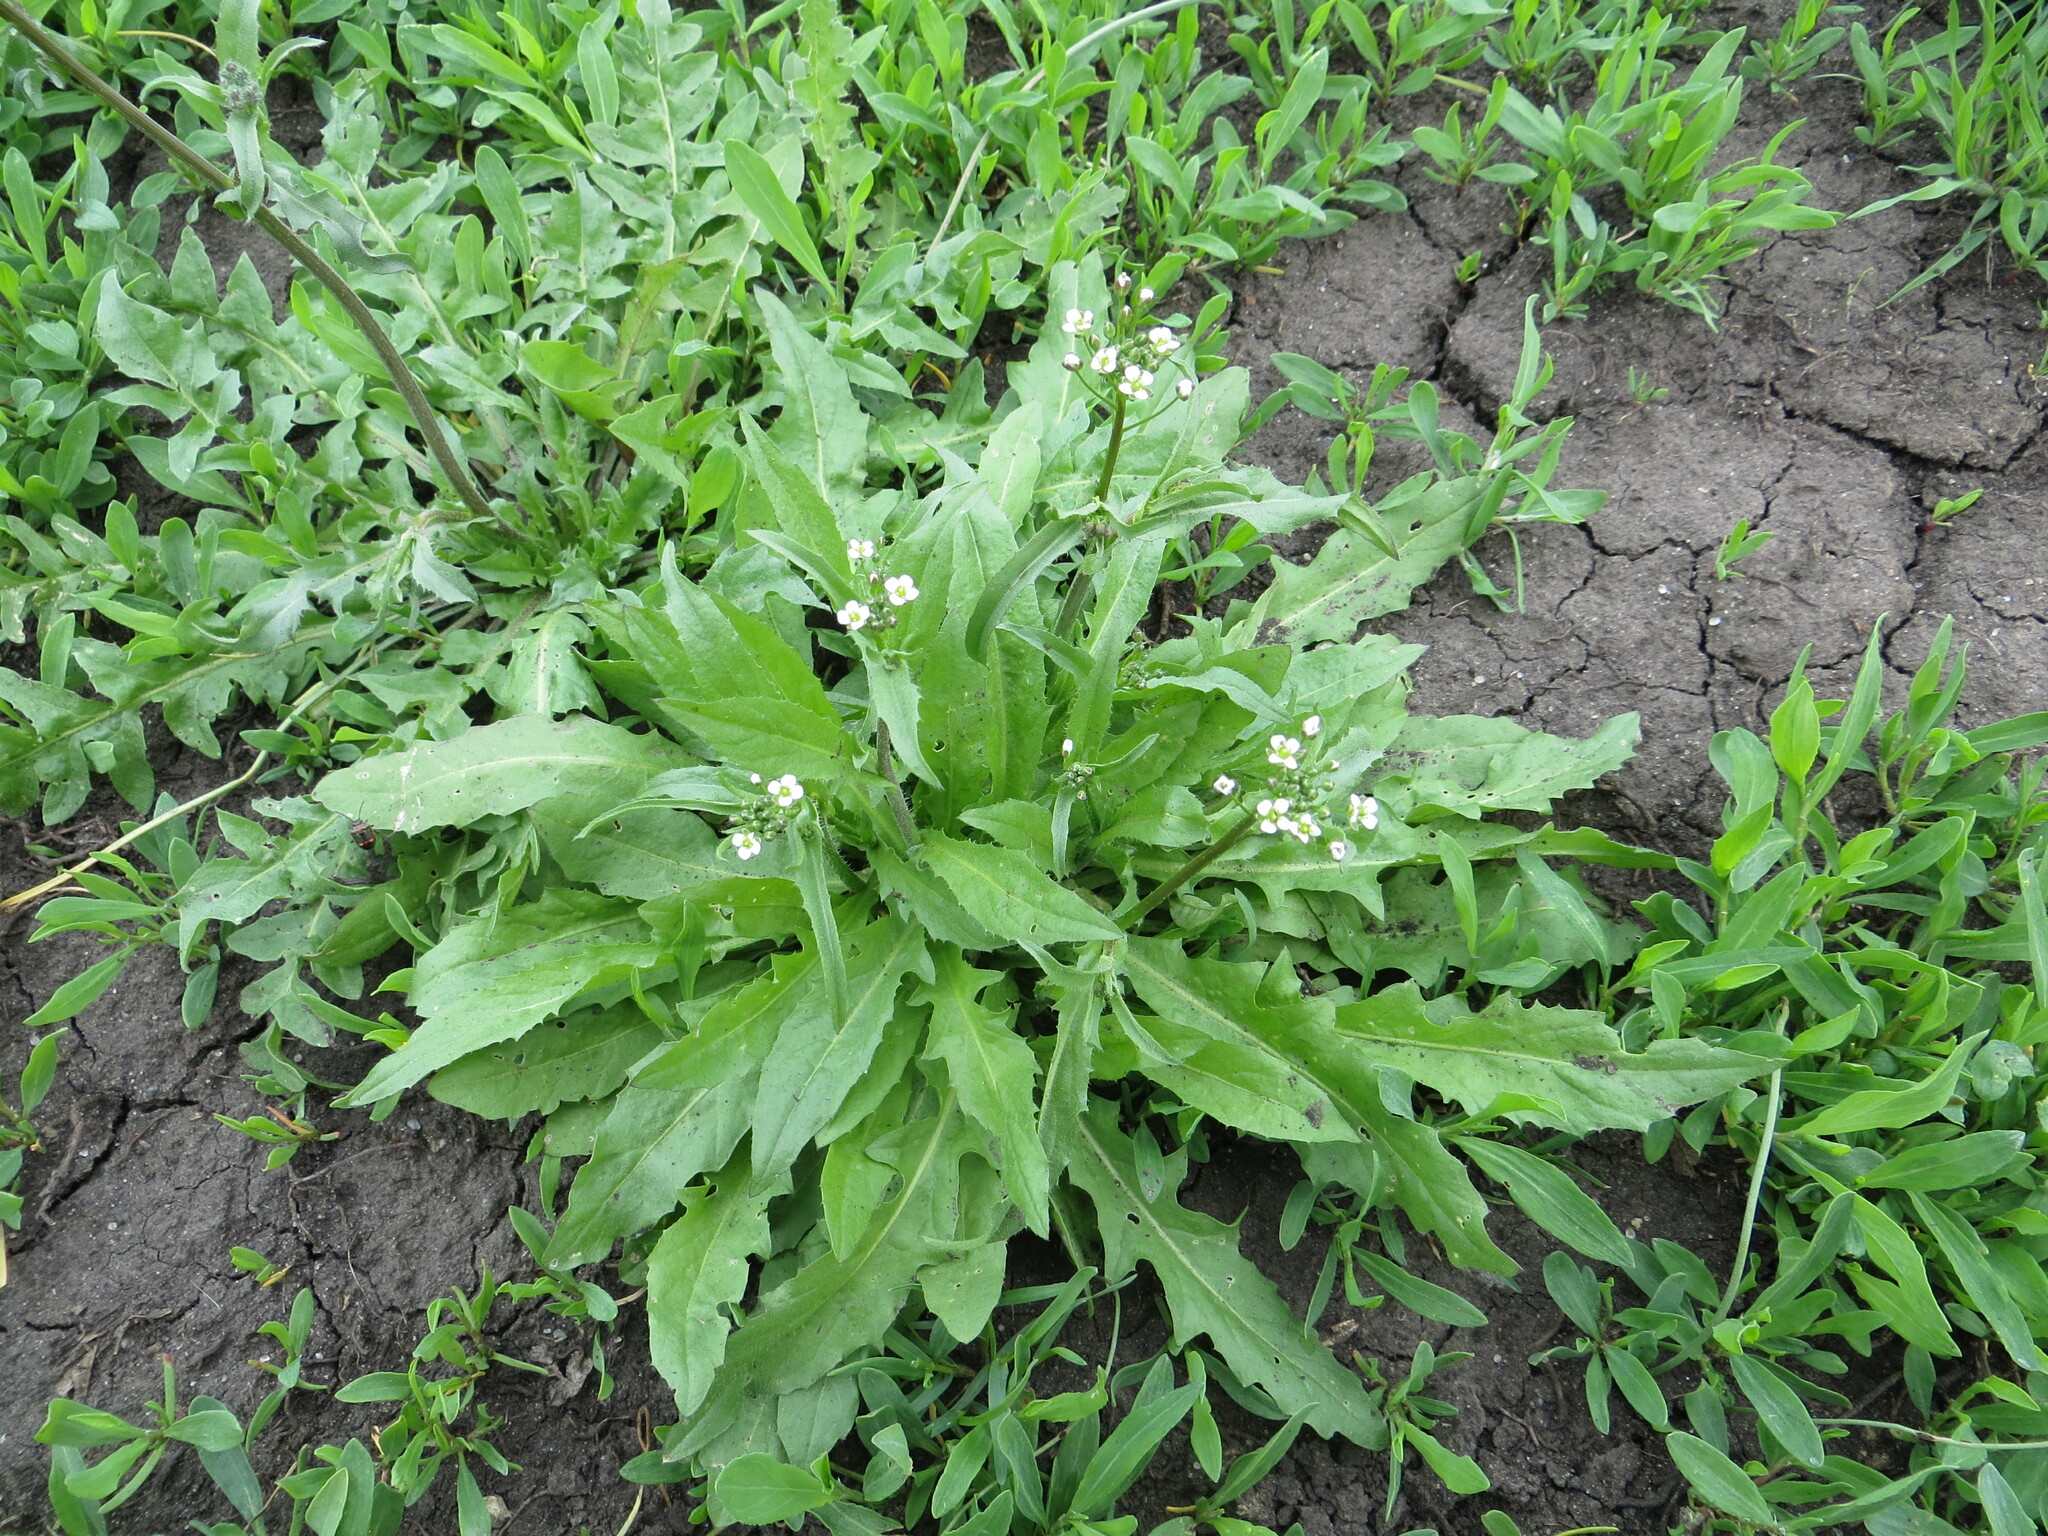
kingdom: Plantae
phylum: Tracheophyta
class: Magnoliopsida
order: Brassicales
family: Brassicaceae
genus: Capsella
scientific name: Capsella bursa-pastoris
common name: Shepherd's purse
